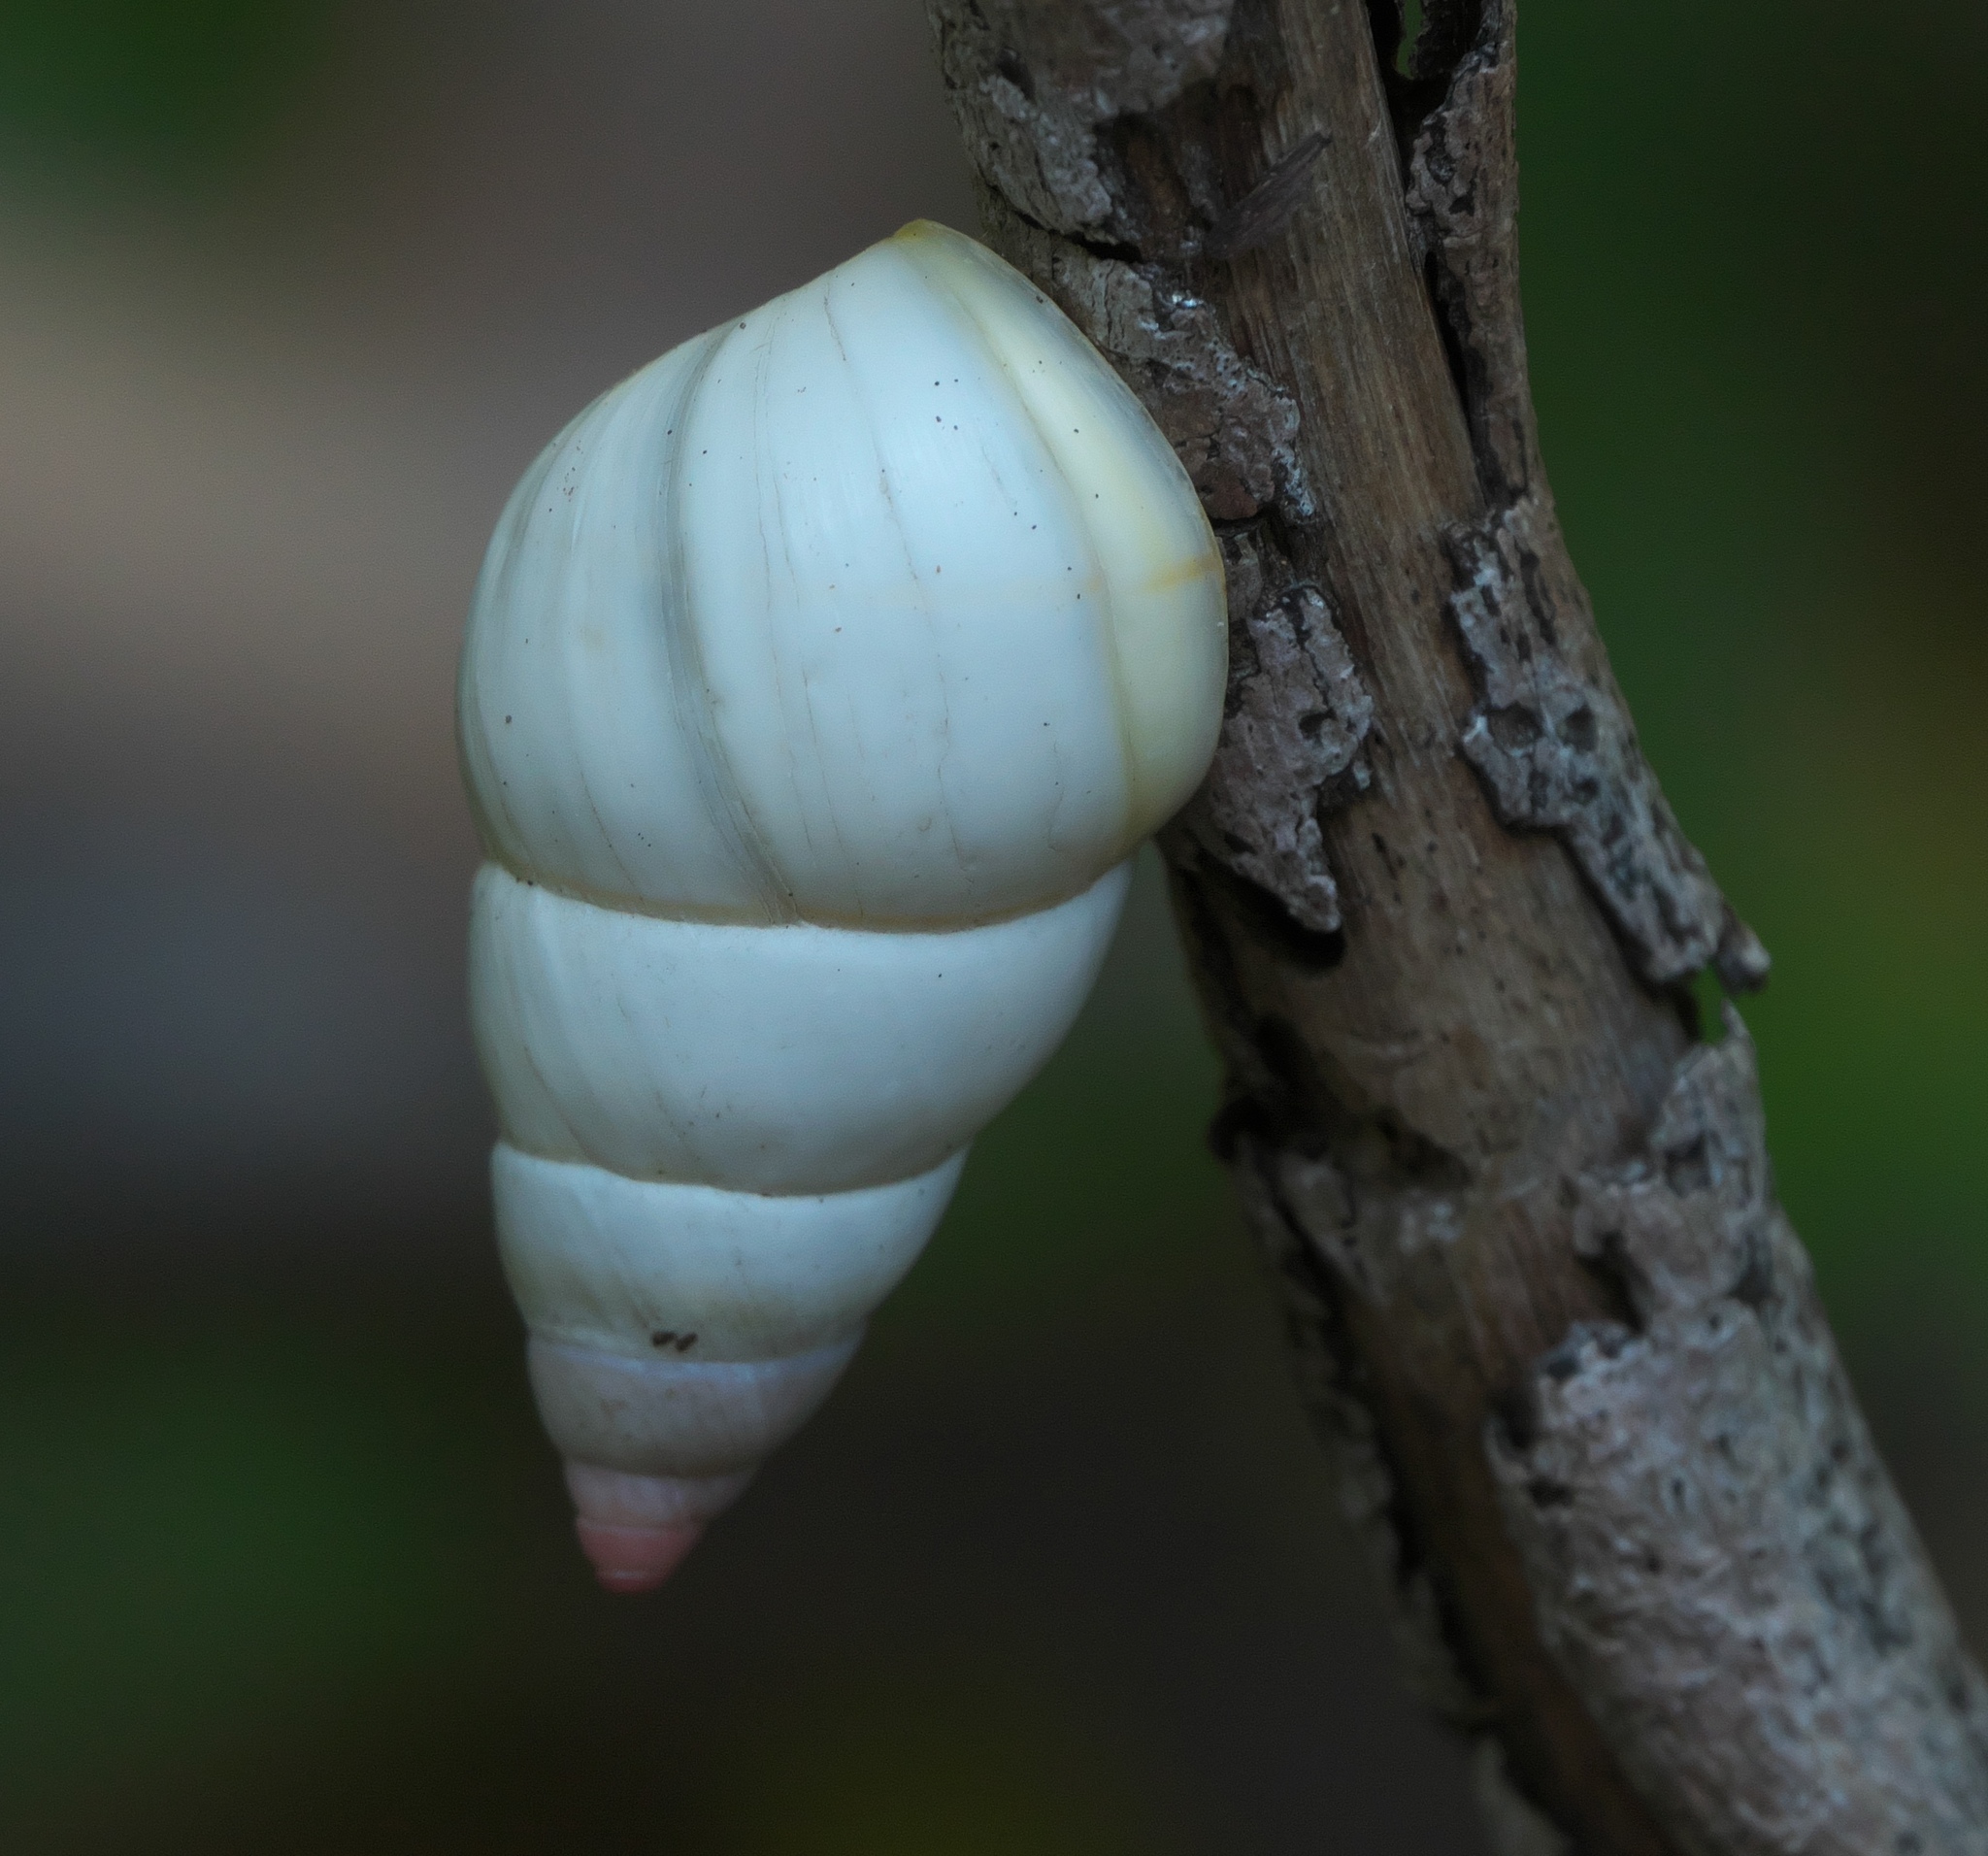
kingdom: Animalia
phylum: Mollusca
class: Gastropoda
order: Stylommatophora
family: Orthalicidae
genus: Liguus
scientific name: Liguus fasciatus
